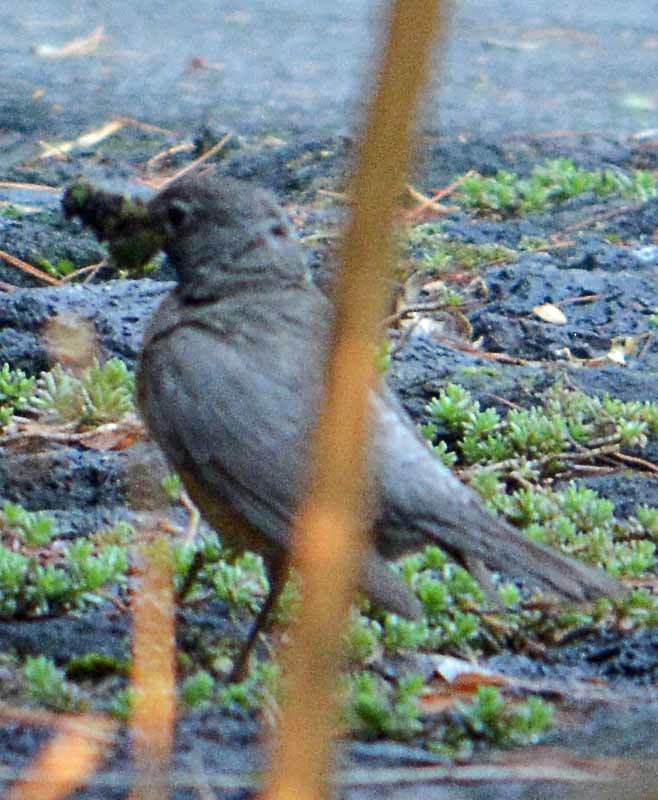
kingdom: Animalia
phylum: Chordata
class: Aves
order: Passeriformes
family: Passerellidae
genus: Melozone
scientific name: Melozone fusca
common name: Canyon towhee
